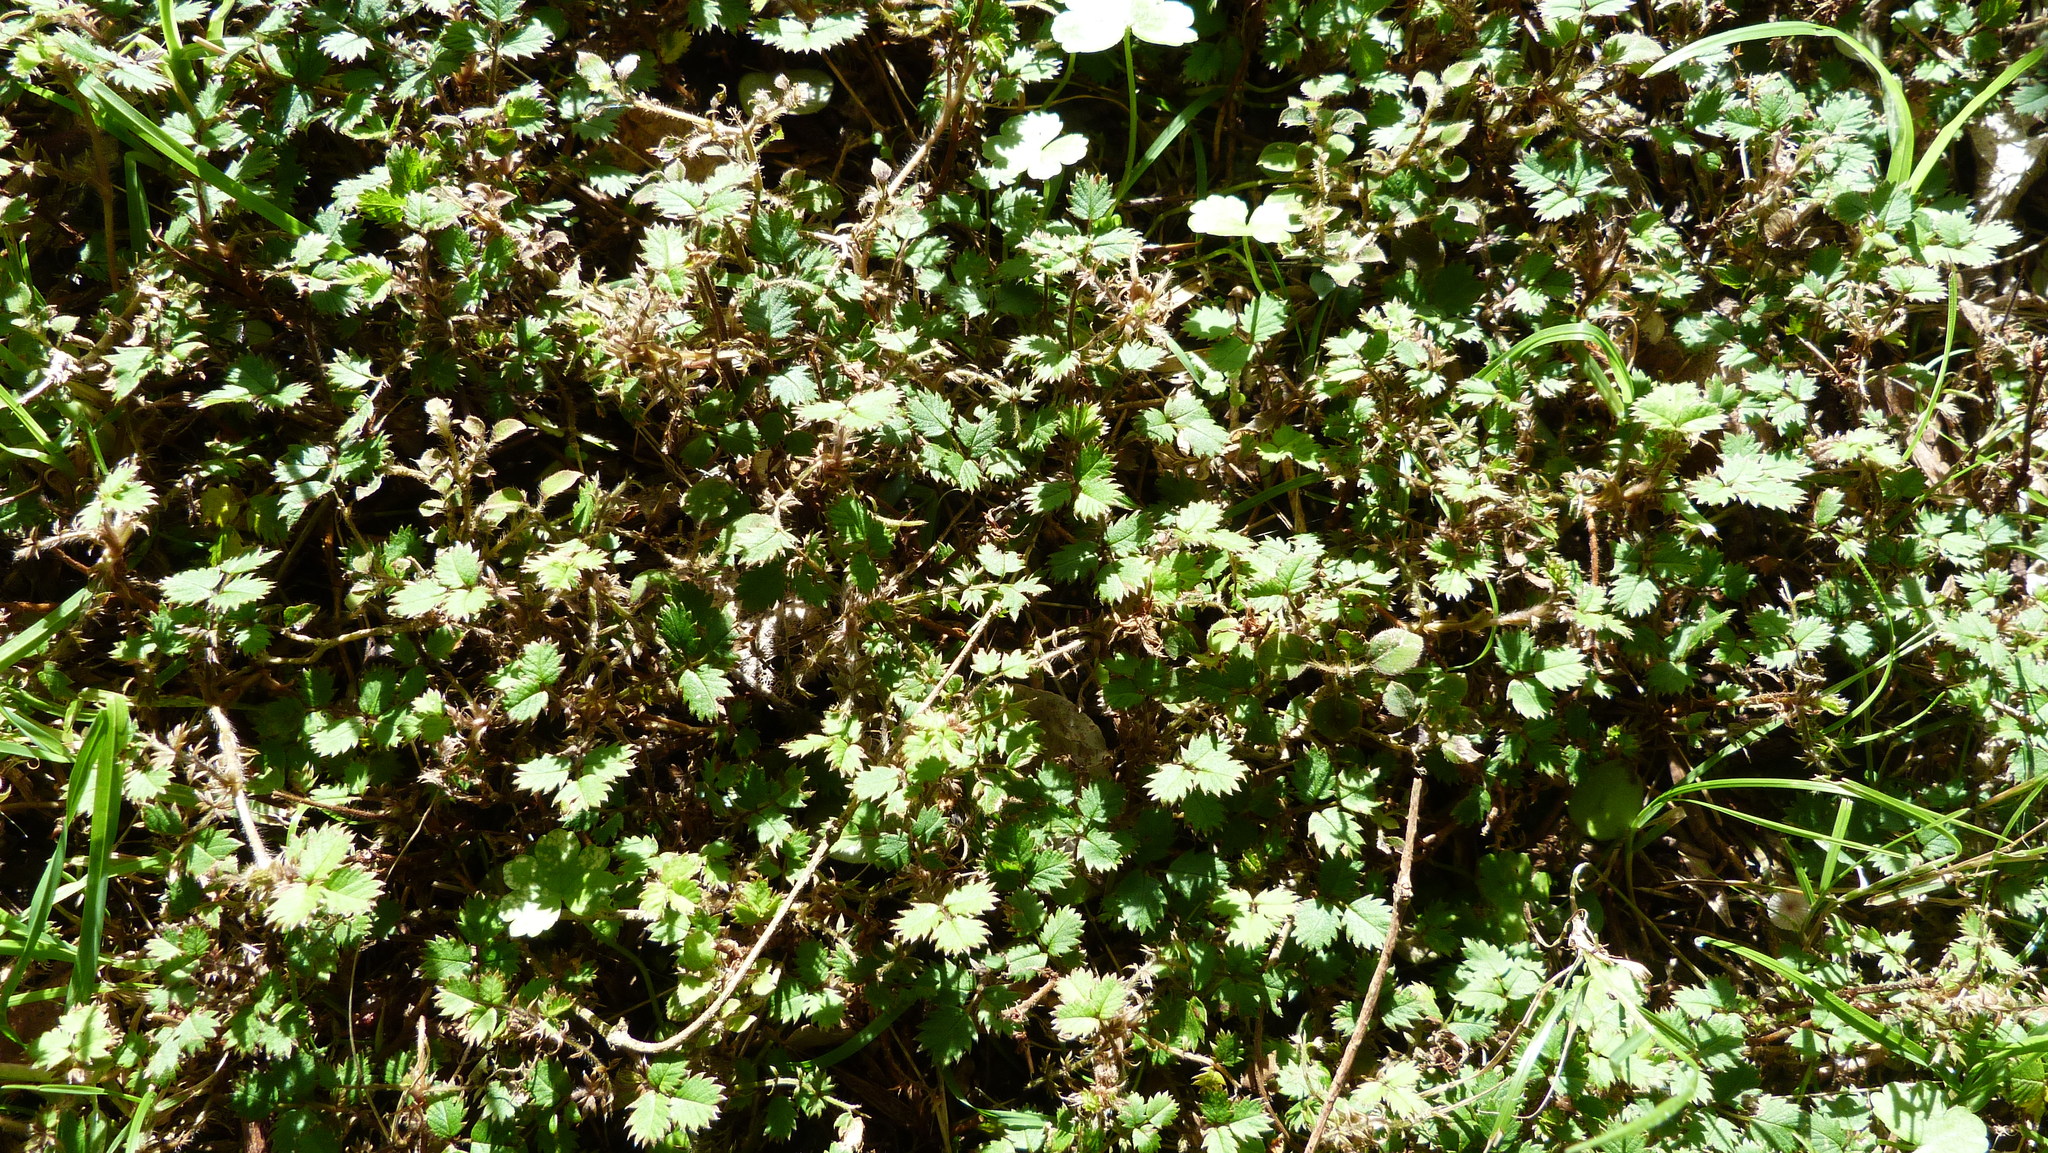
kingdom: Plantae
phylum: Tracheophyta
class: Magnoliopsida
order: Rosales
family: Rosaceae
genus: Acaena
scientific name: Acaena juvenca
